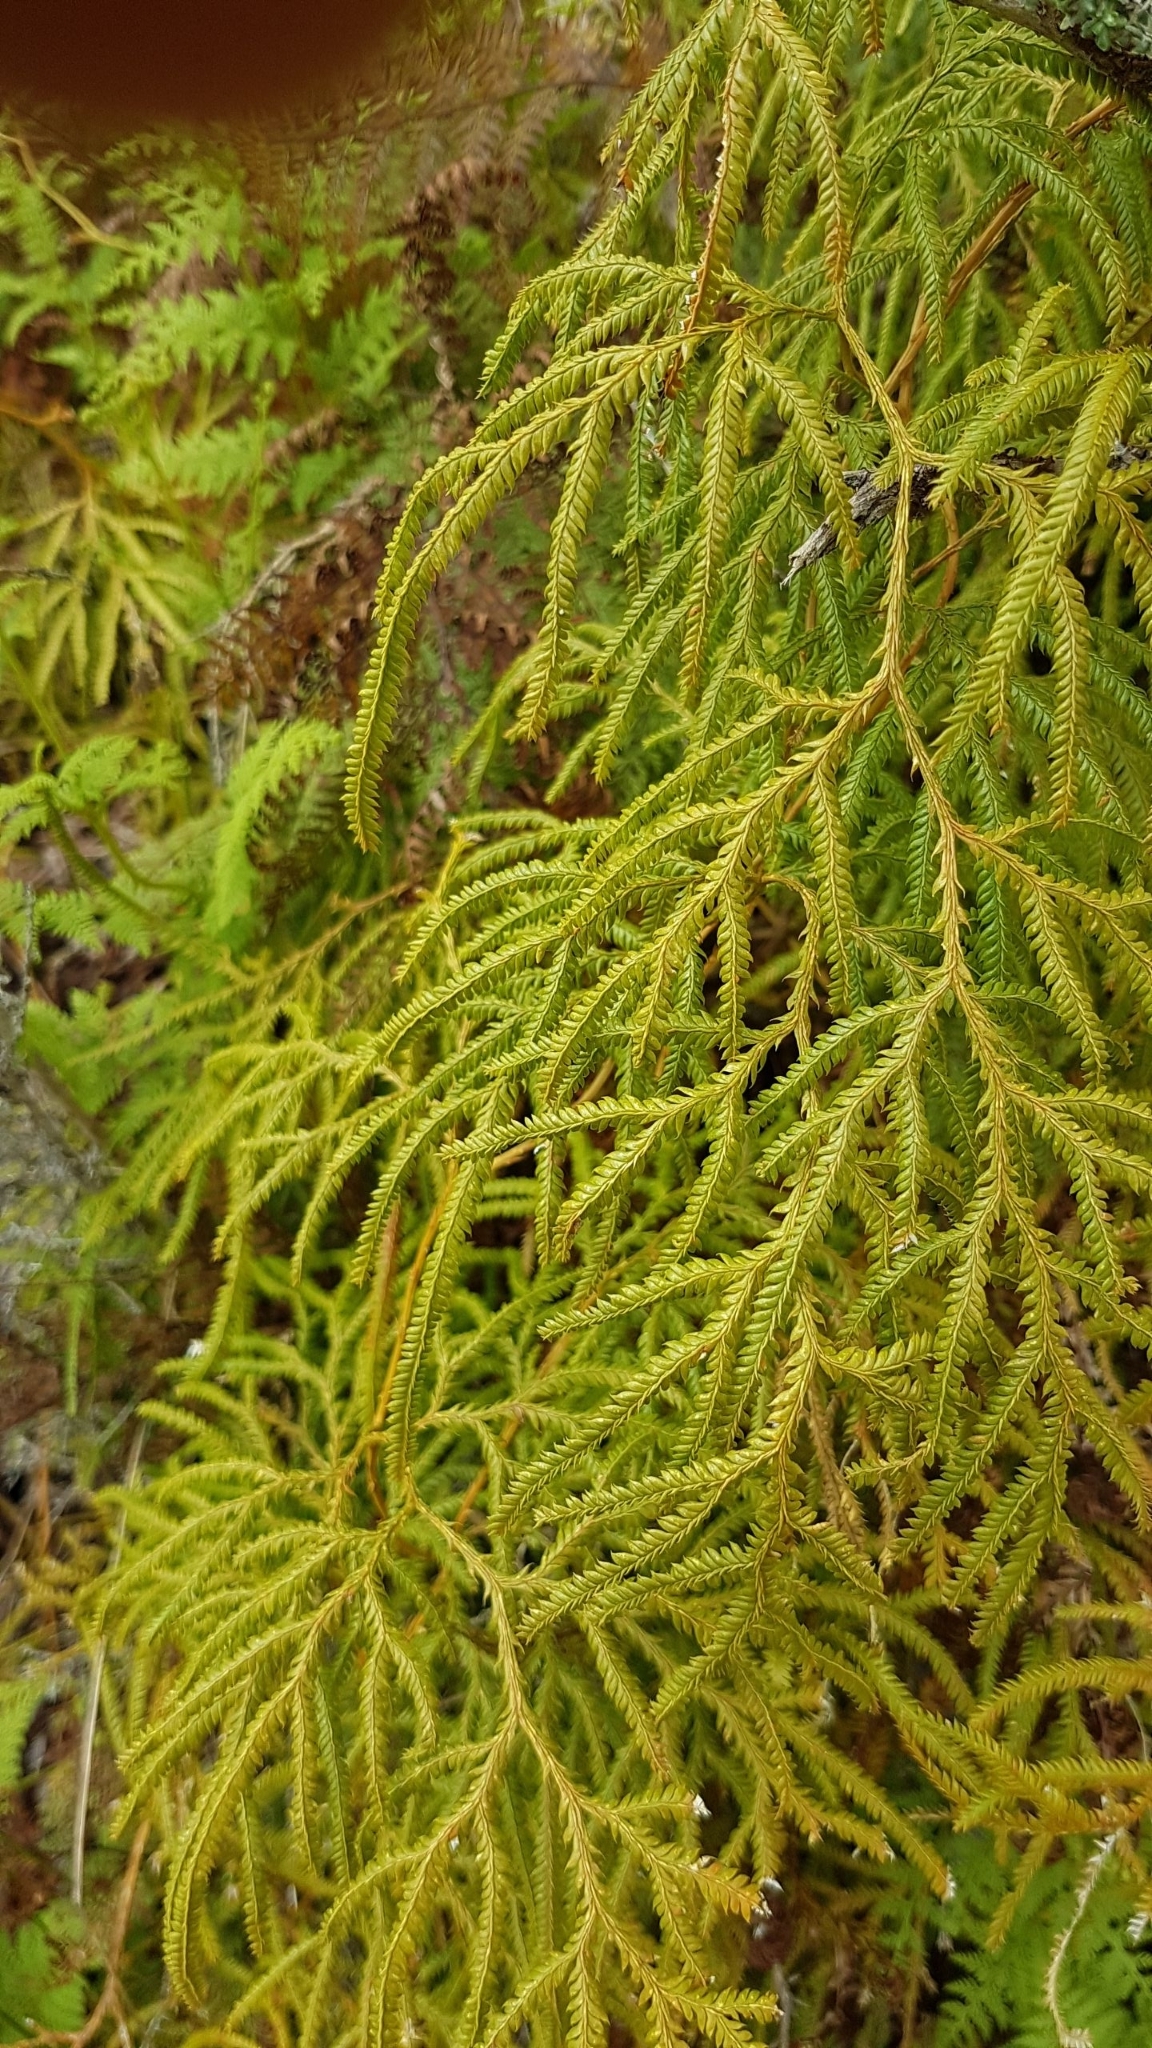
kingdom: Plantae
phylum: Tracheophyta
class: Lycopodiopsida
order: Lycopodiales
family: Lycopodiaceae
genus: Lycopodium
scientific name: Lycopodium volubile
